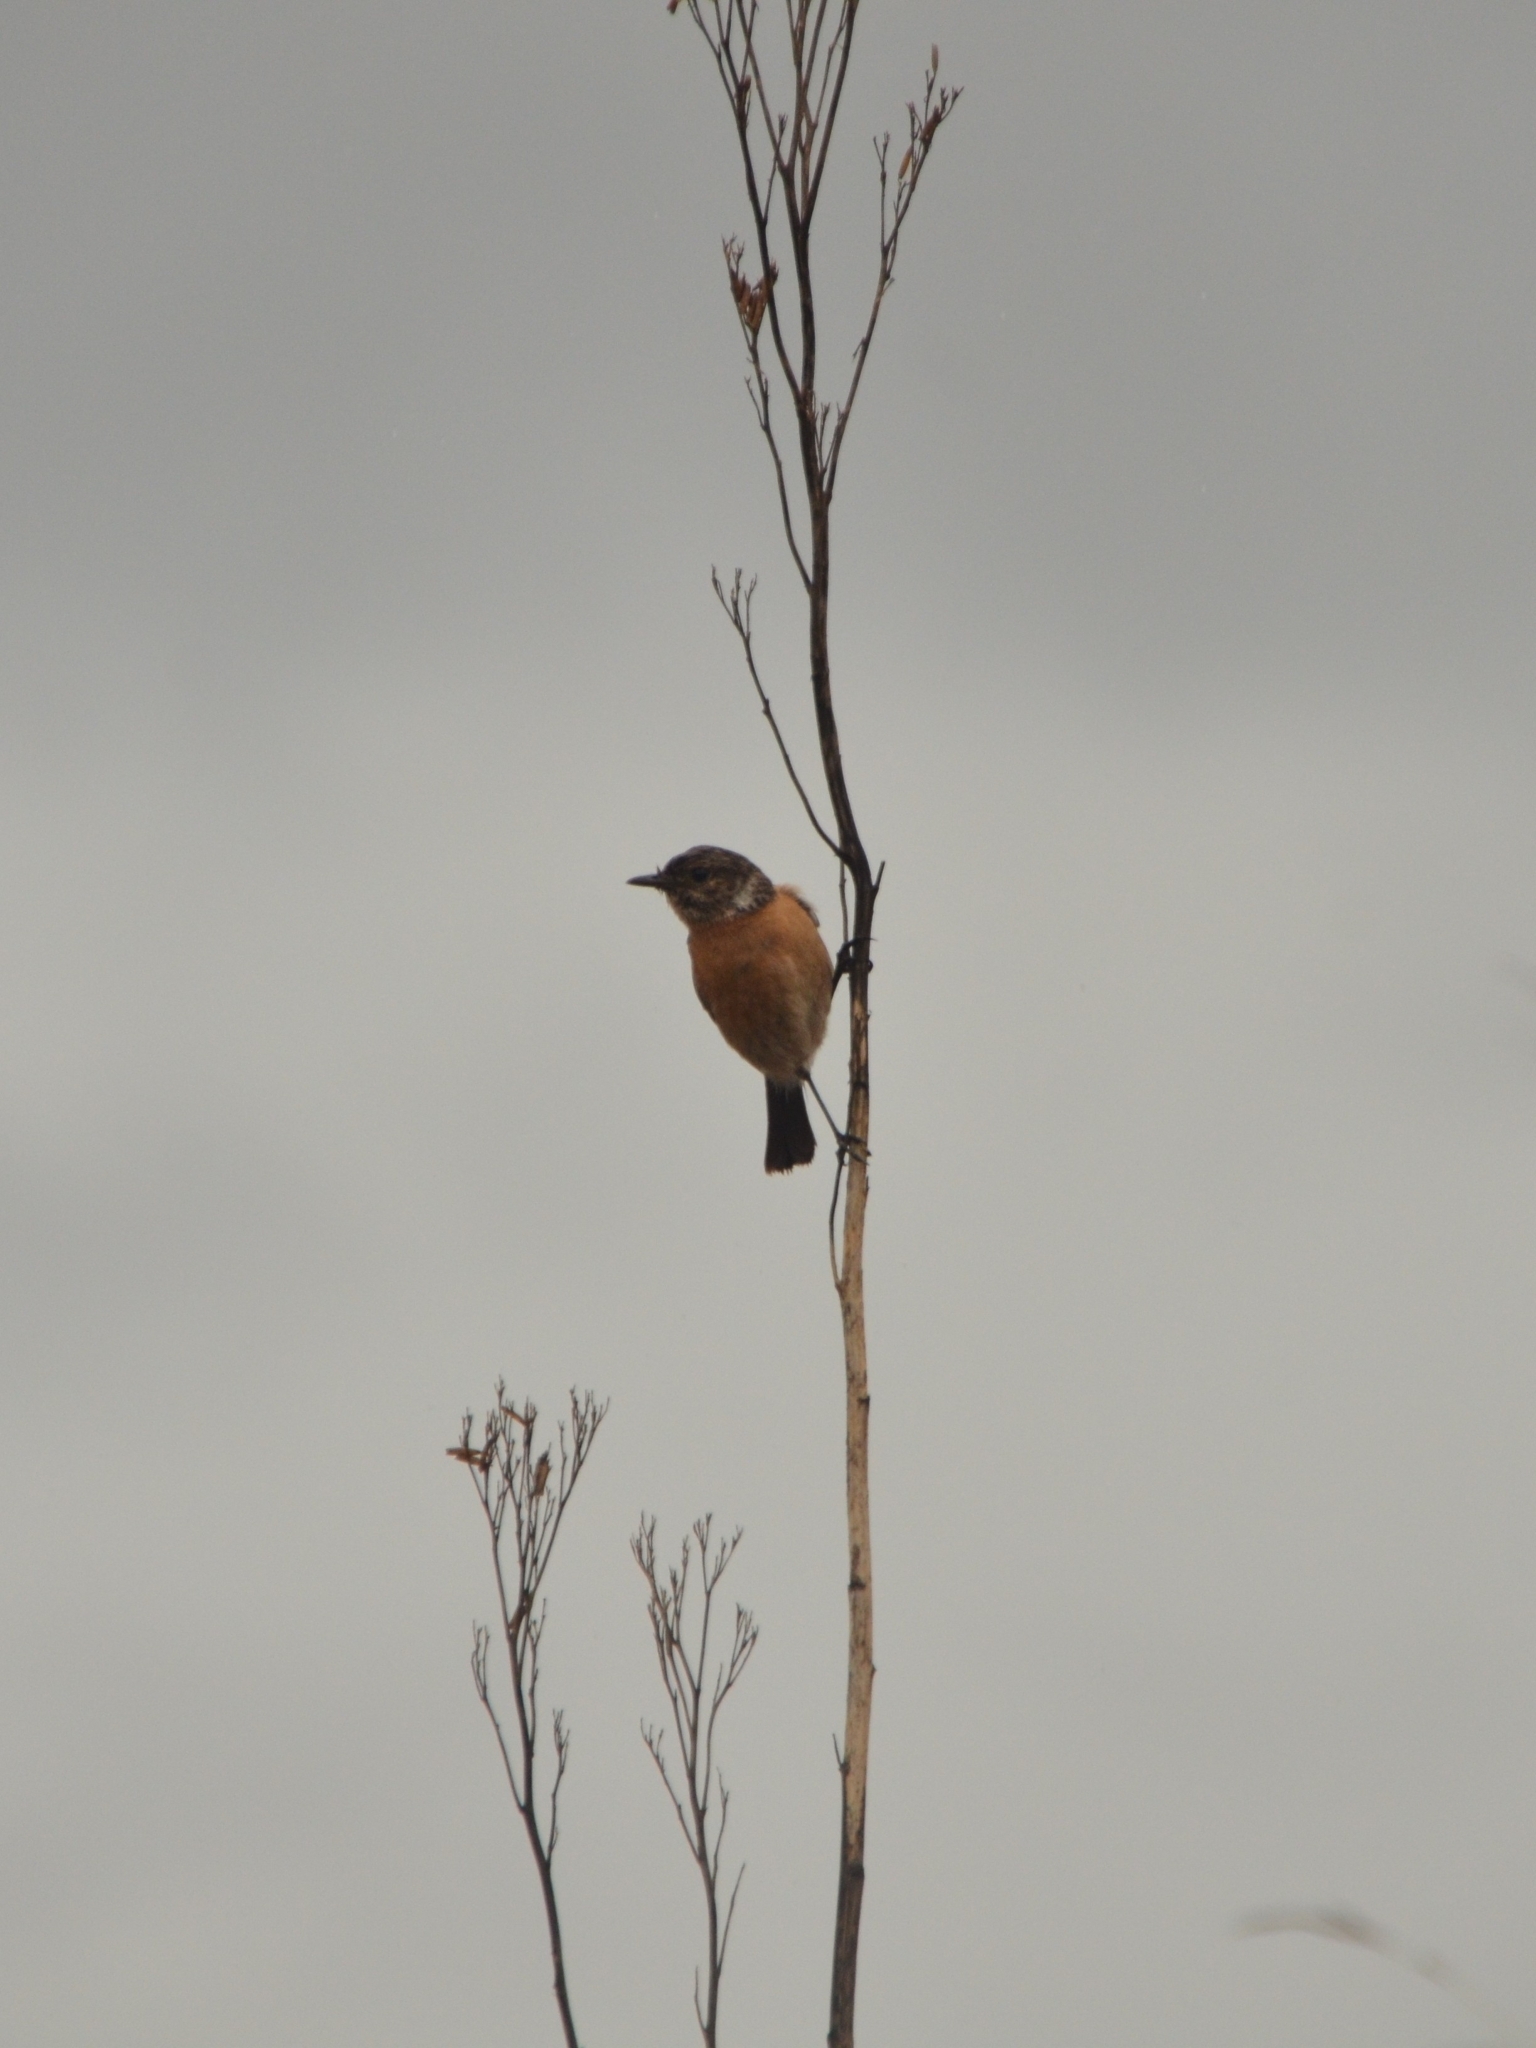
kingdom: Animalia
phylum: Chordata
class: Aves
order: Passeriformes
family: Muscicapidae
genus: Saxicola
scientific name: Saxicola torquatus
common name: African stonechat
